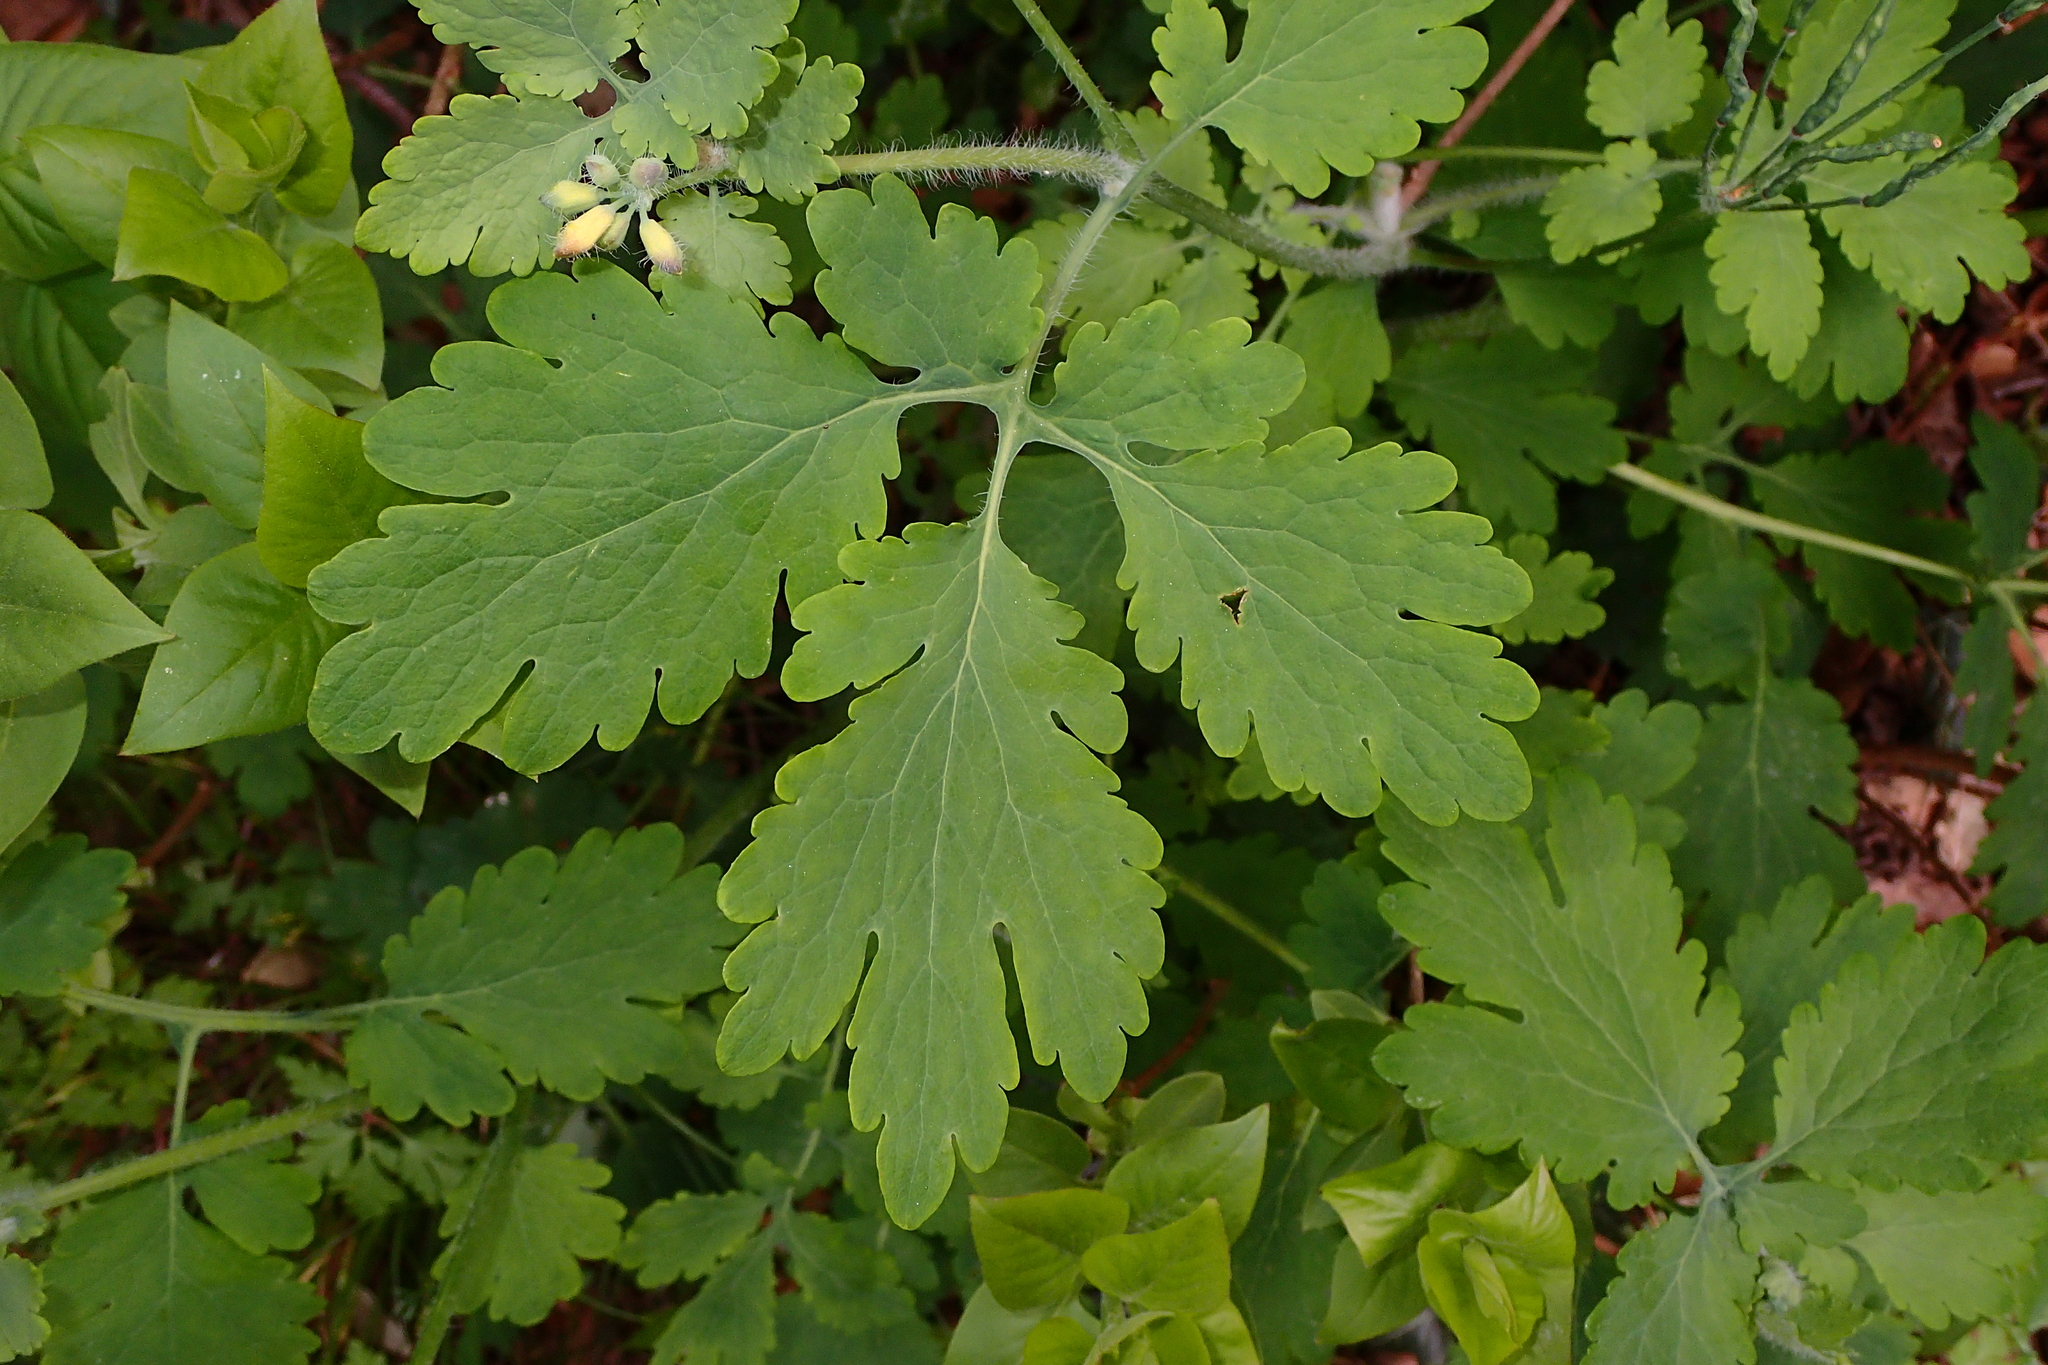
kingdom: Plantae
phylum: Tracheophyta
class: Magnoliopsida
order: Ranunculales
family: Papaveraceae
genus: Chelidonium
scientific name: Chelidonium majus
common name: Greater celandine
